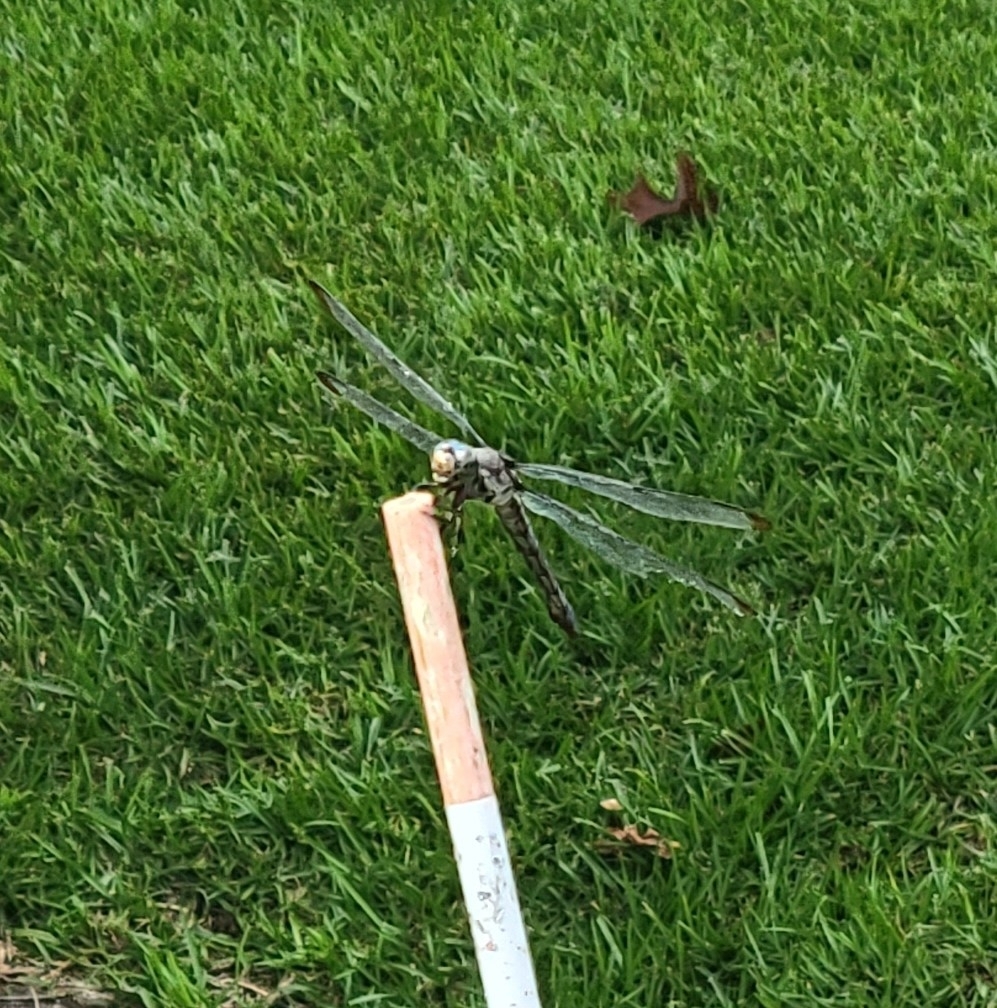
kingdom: Animalia
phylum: Arthropoda
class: Insecta
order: Odonata
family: Libellulidae
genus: Libellula
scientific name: Libellula vibrans
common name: Great blue skimmer
